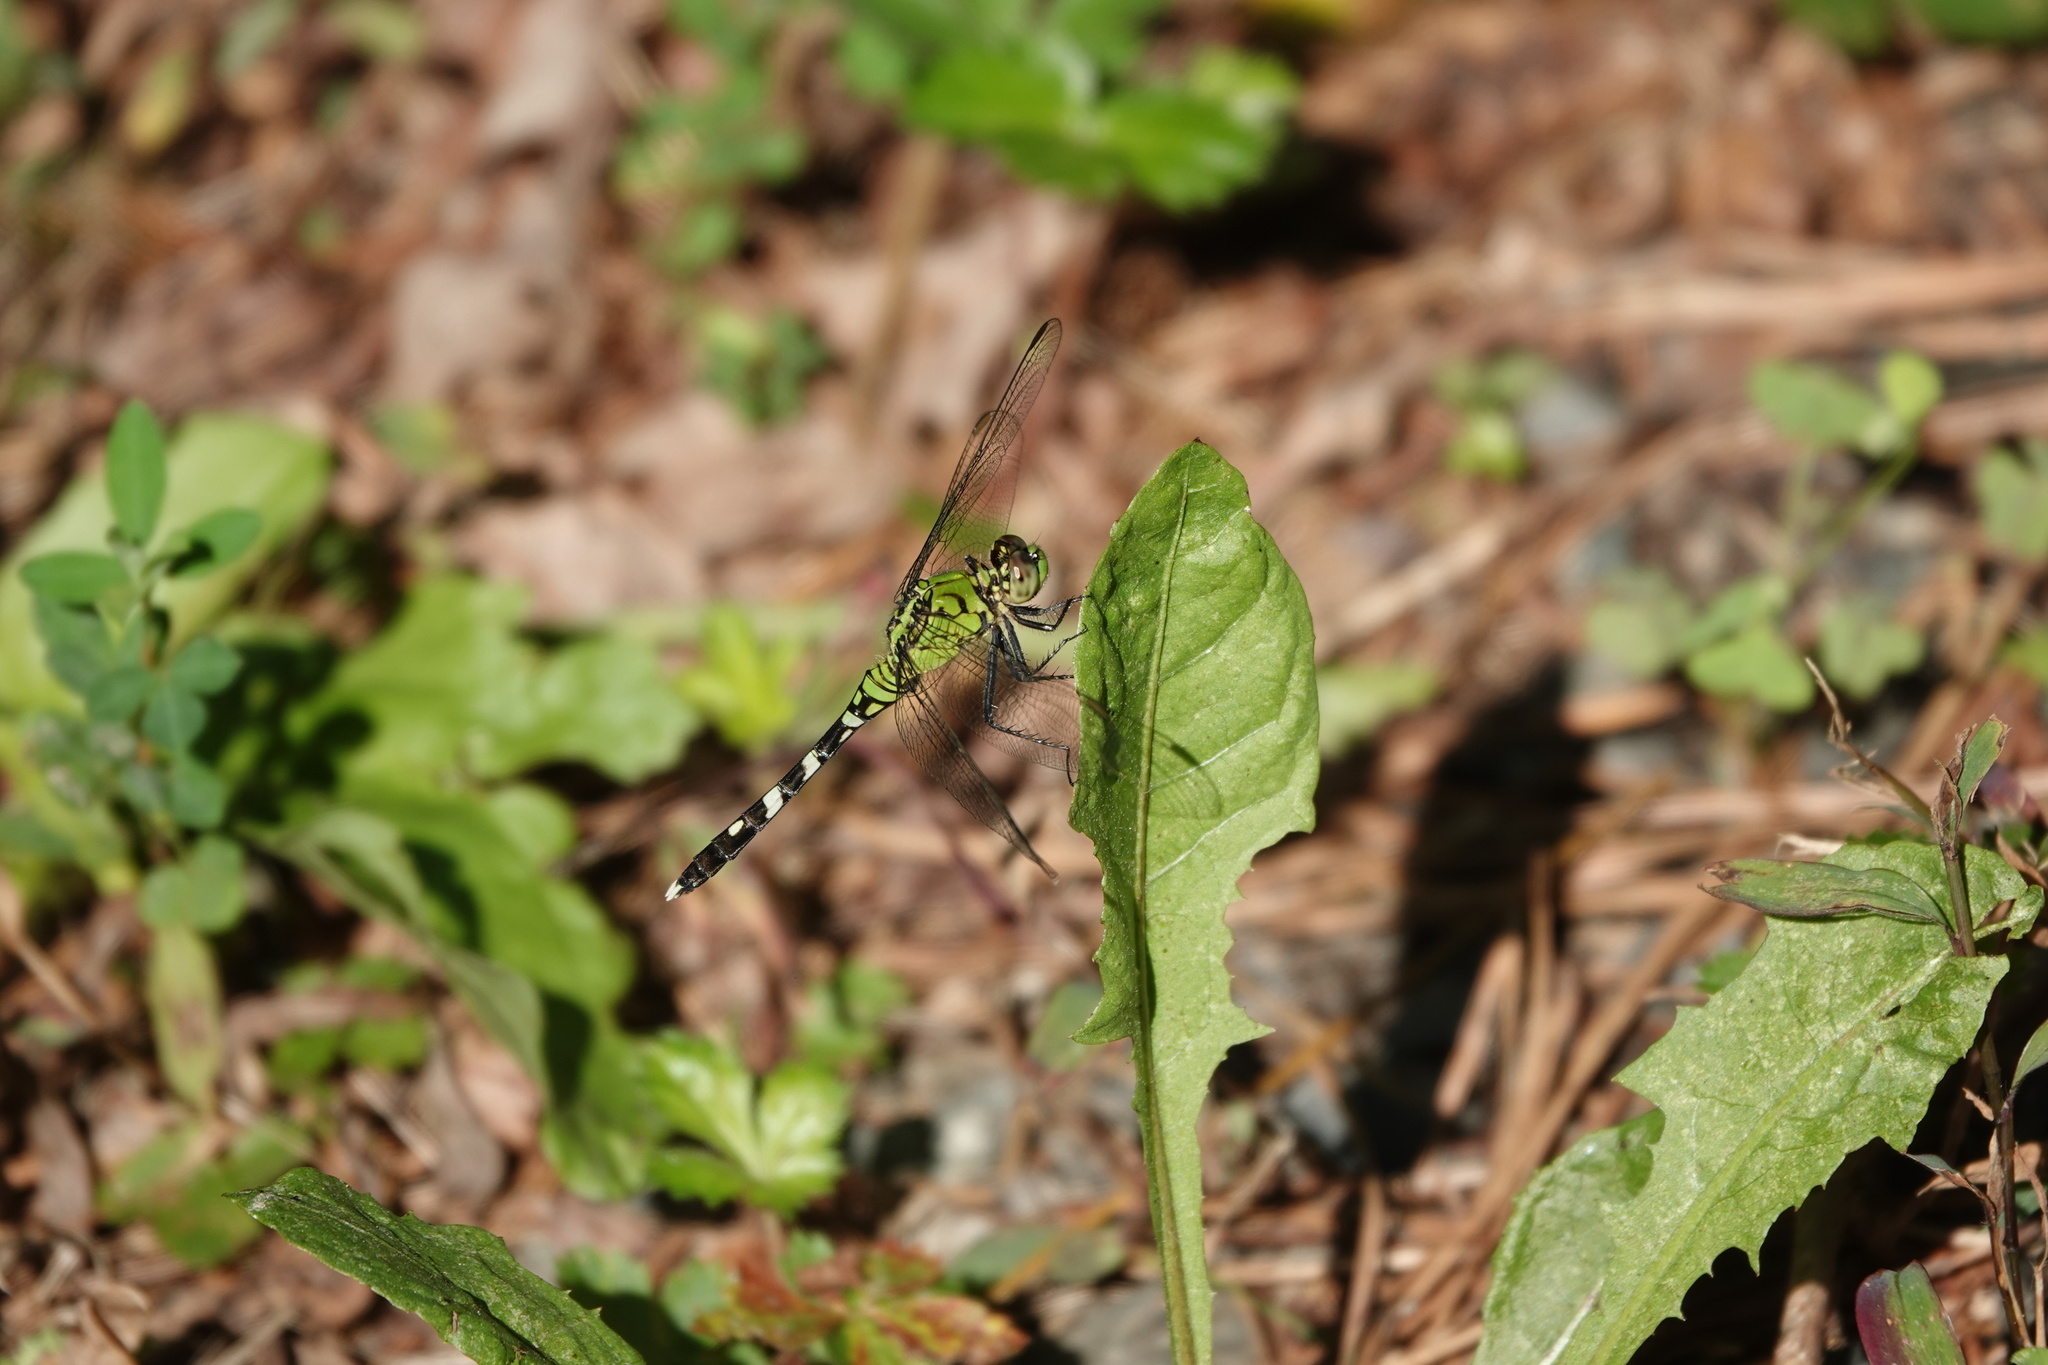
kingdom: Animalia
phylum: Arthropoda
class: Insecta
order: Odonata
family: Libellulidae
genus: Erythemis
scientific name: Erythemis simplicicollis
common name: Eastern pondhawk
